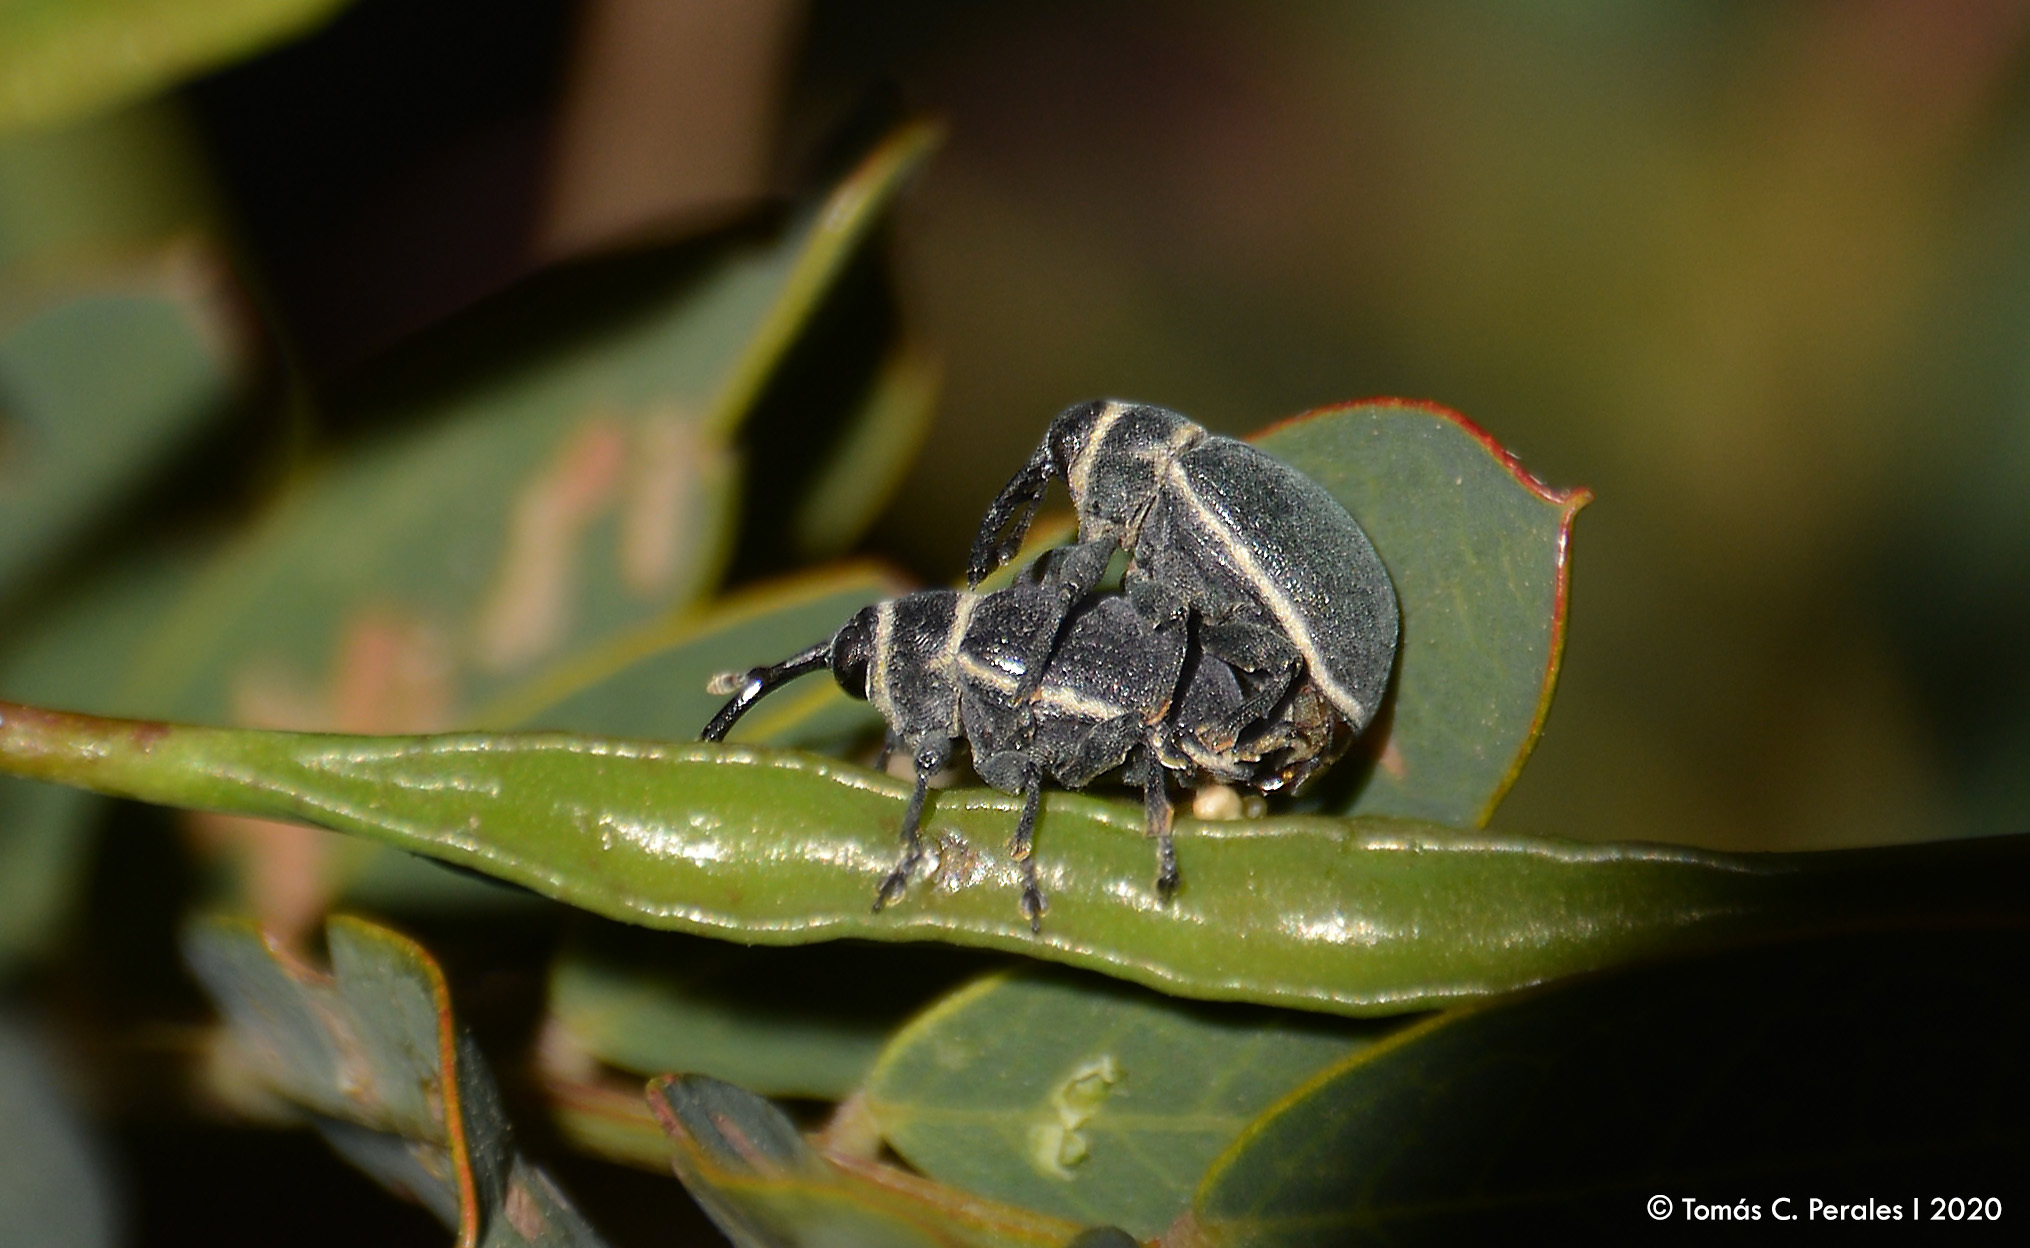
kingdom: Animalia
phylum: Arthropoda
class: Insecta
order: Coleoptera
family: Curculionidae
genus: Rhyssomatus
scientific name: Rhyssomatus marginatus
